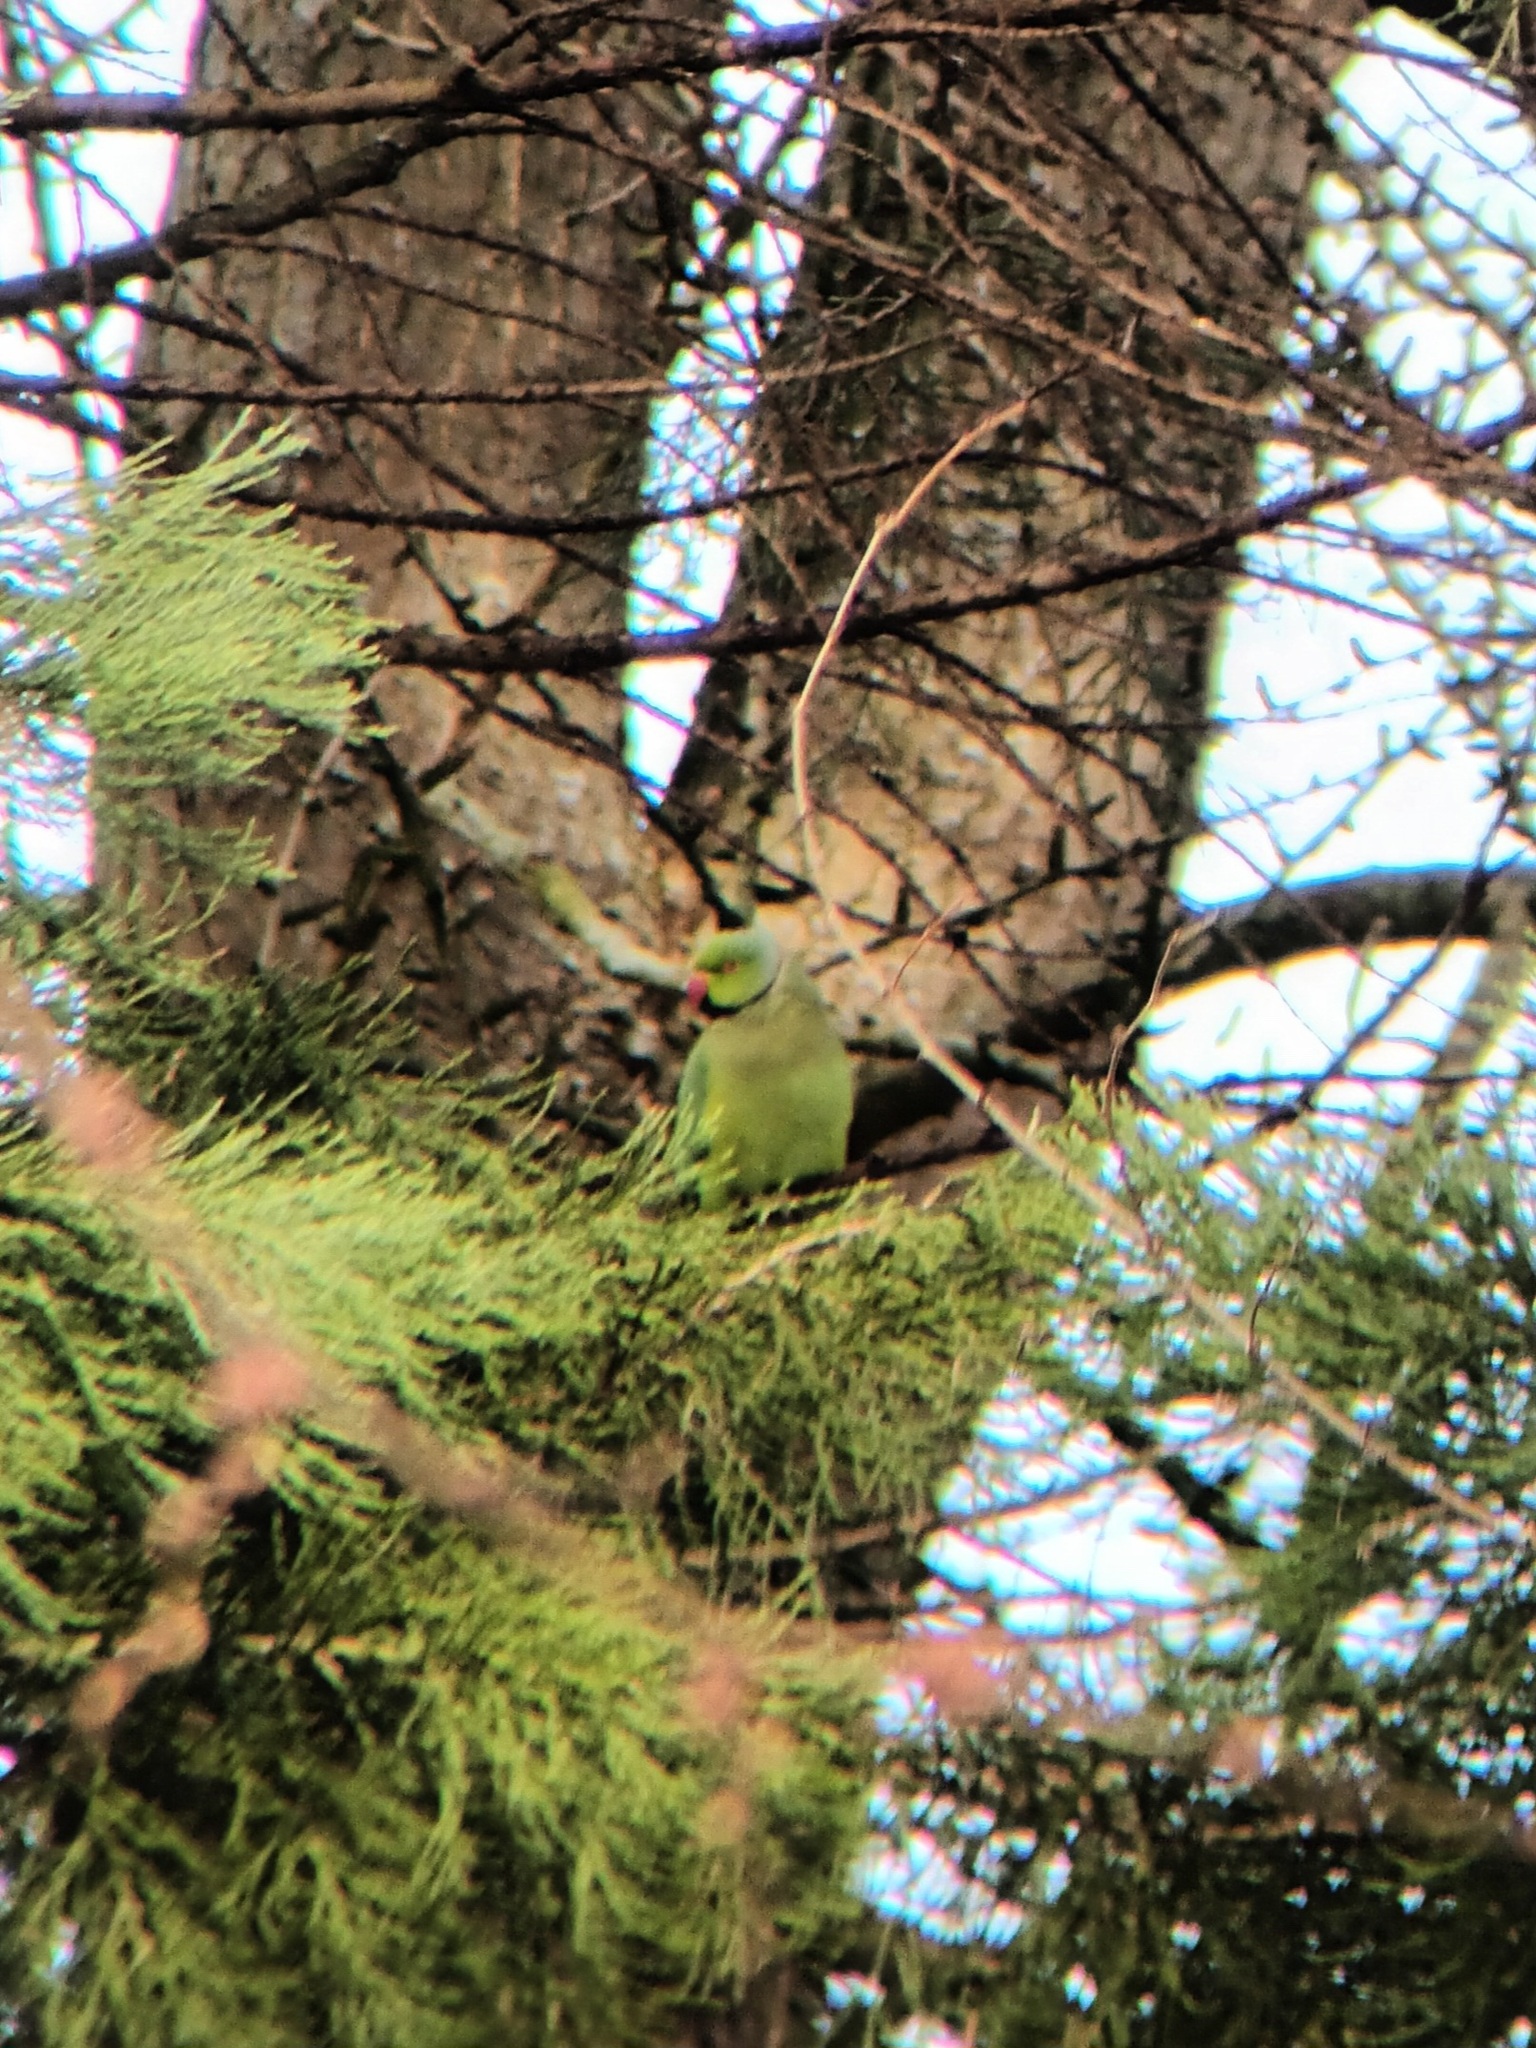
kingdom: Animalia
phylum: Chordata
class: Aves
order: Psittaciformes
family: Psittacidae
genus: Psittacula
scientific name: Psittacula krameri
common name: Rose-ringed parakeet
